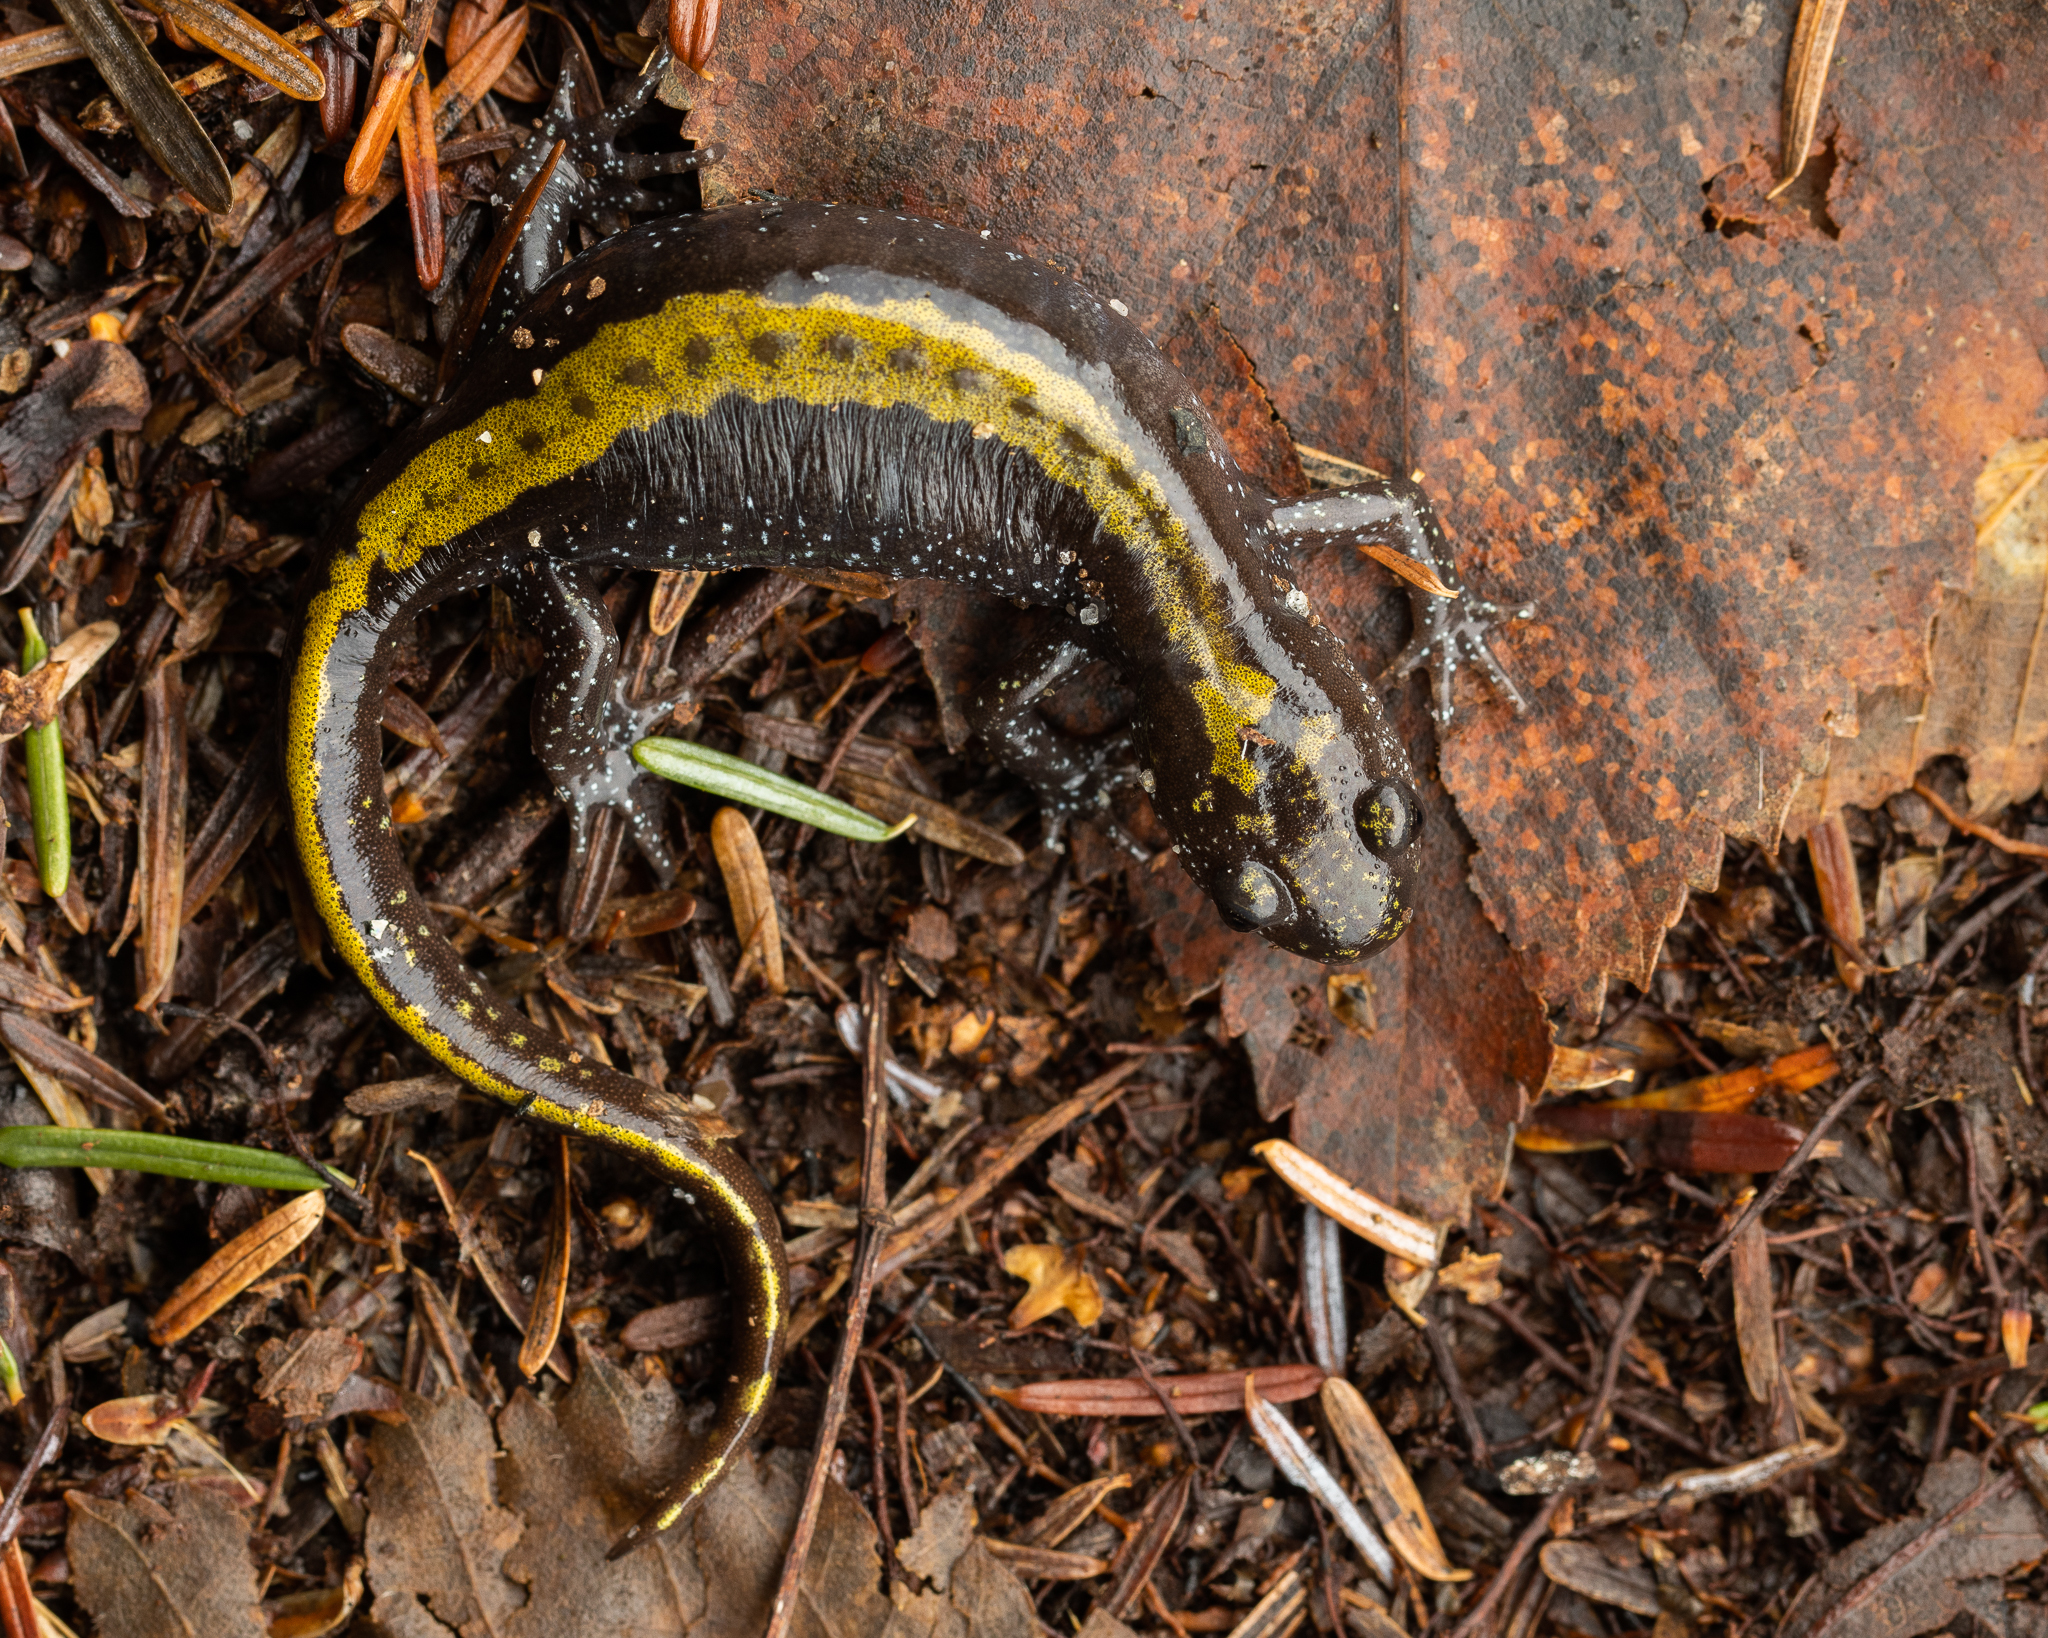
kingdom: Animalia
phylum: Chordata
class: Amphibia
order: Caudata
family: Ambystomatidae
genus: Ambystoma
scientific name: Ambystoma macrodactylum
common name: Long-toed salamander
